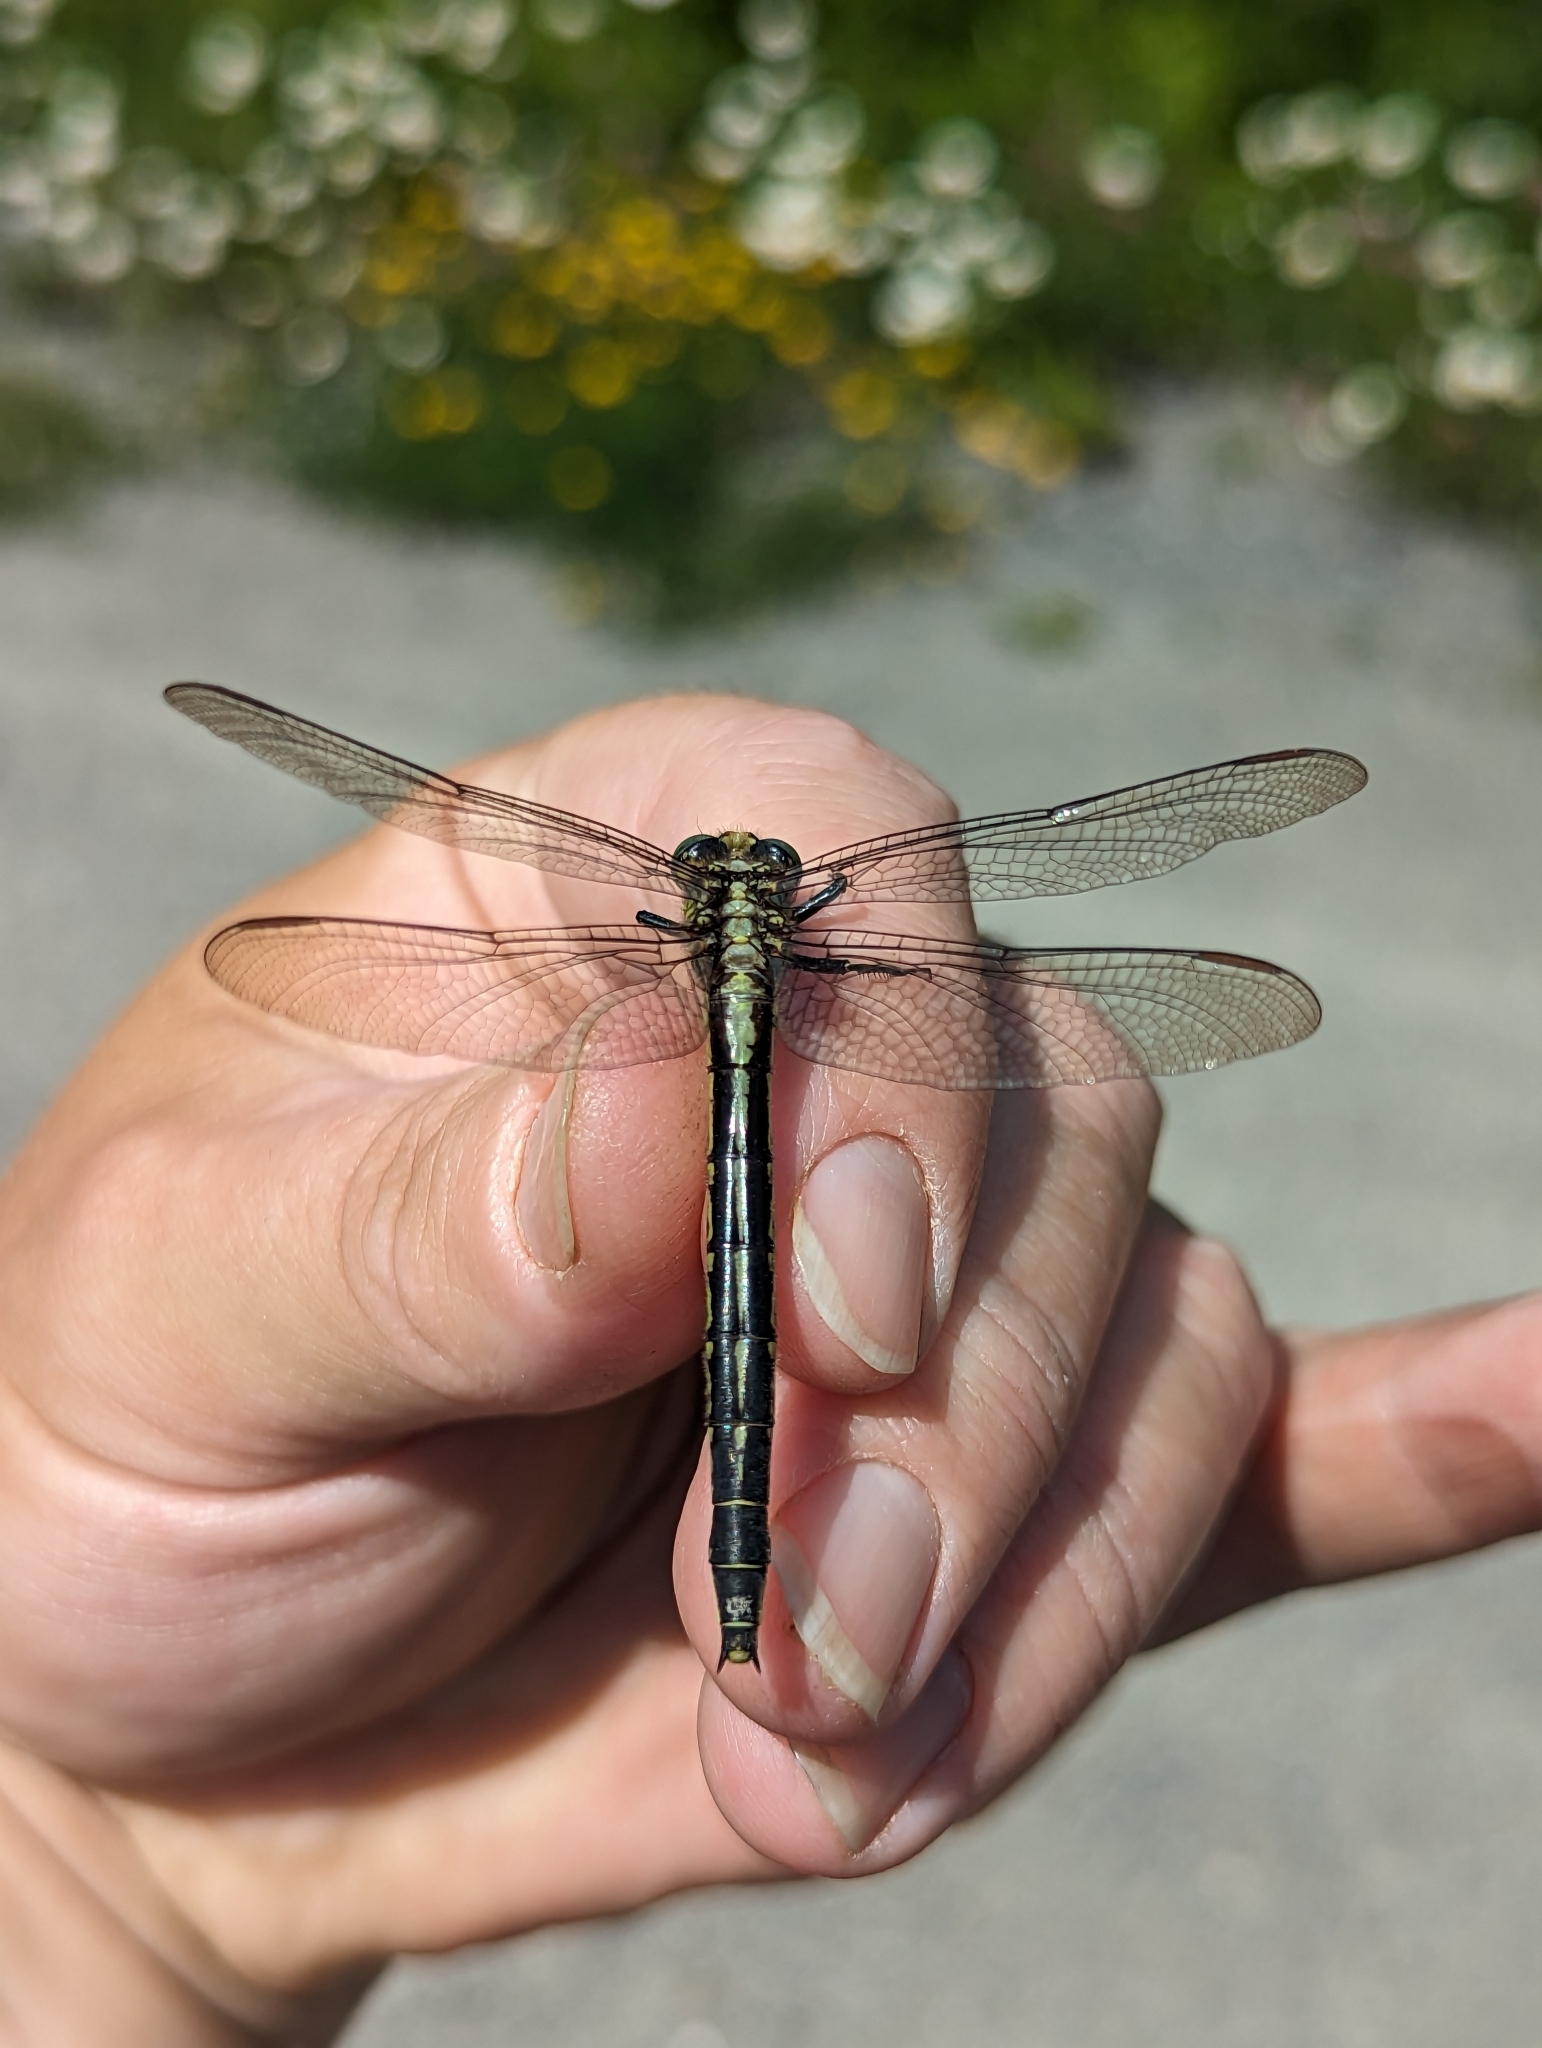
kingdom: Animalia
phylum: Arthropoda
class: Insecta
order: Odonata
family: Gomphidae
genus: Phanogomphus
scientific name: Phanogomphus descriptus
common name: Harpoon clubtail
